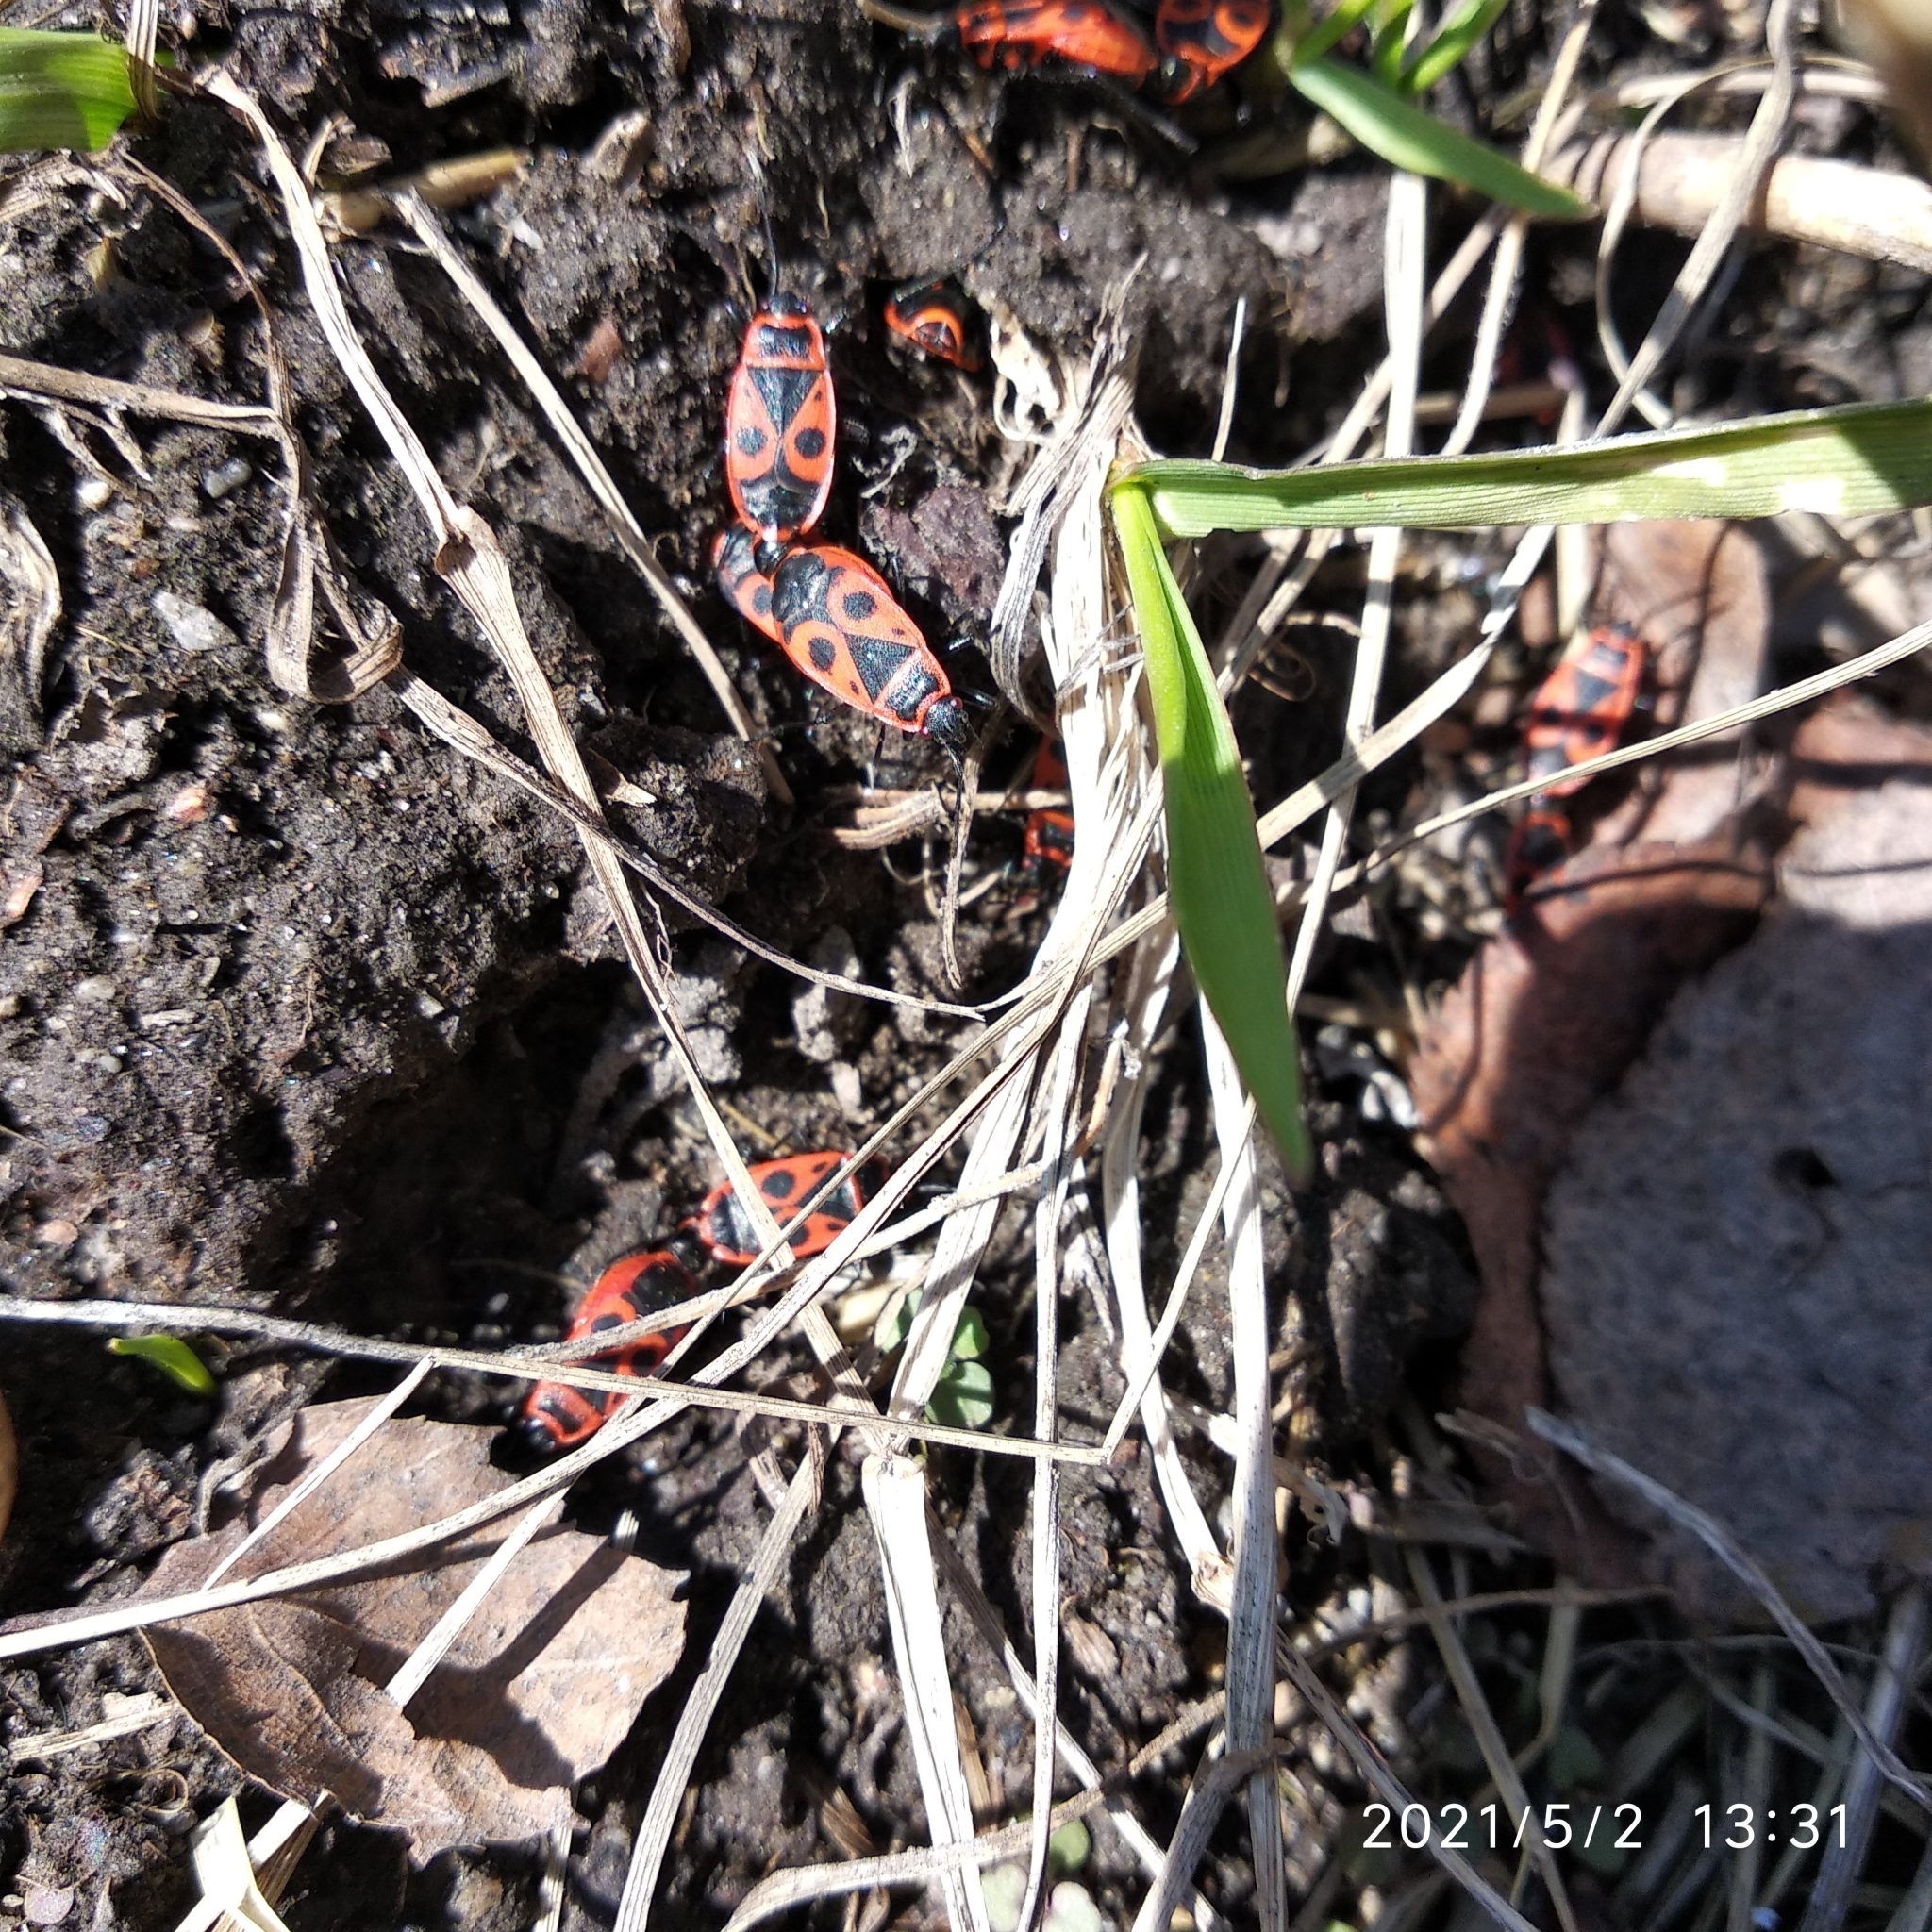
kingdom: Animalia
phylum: Arthropoda
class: Insecta
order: Hemiptera
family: Pyrrhocoridae
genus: Pyrrhocoris
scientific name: Pyrrhocoris apterus
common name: Firebug
